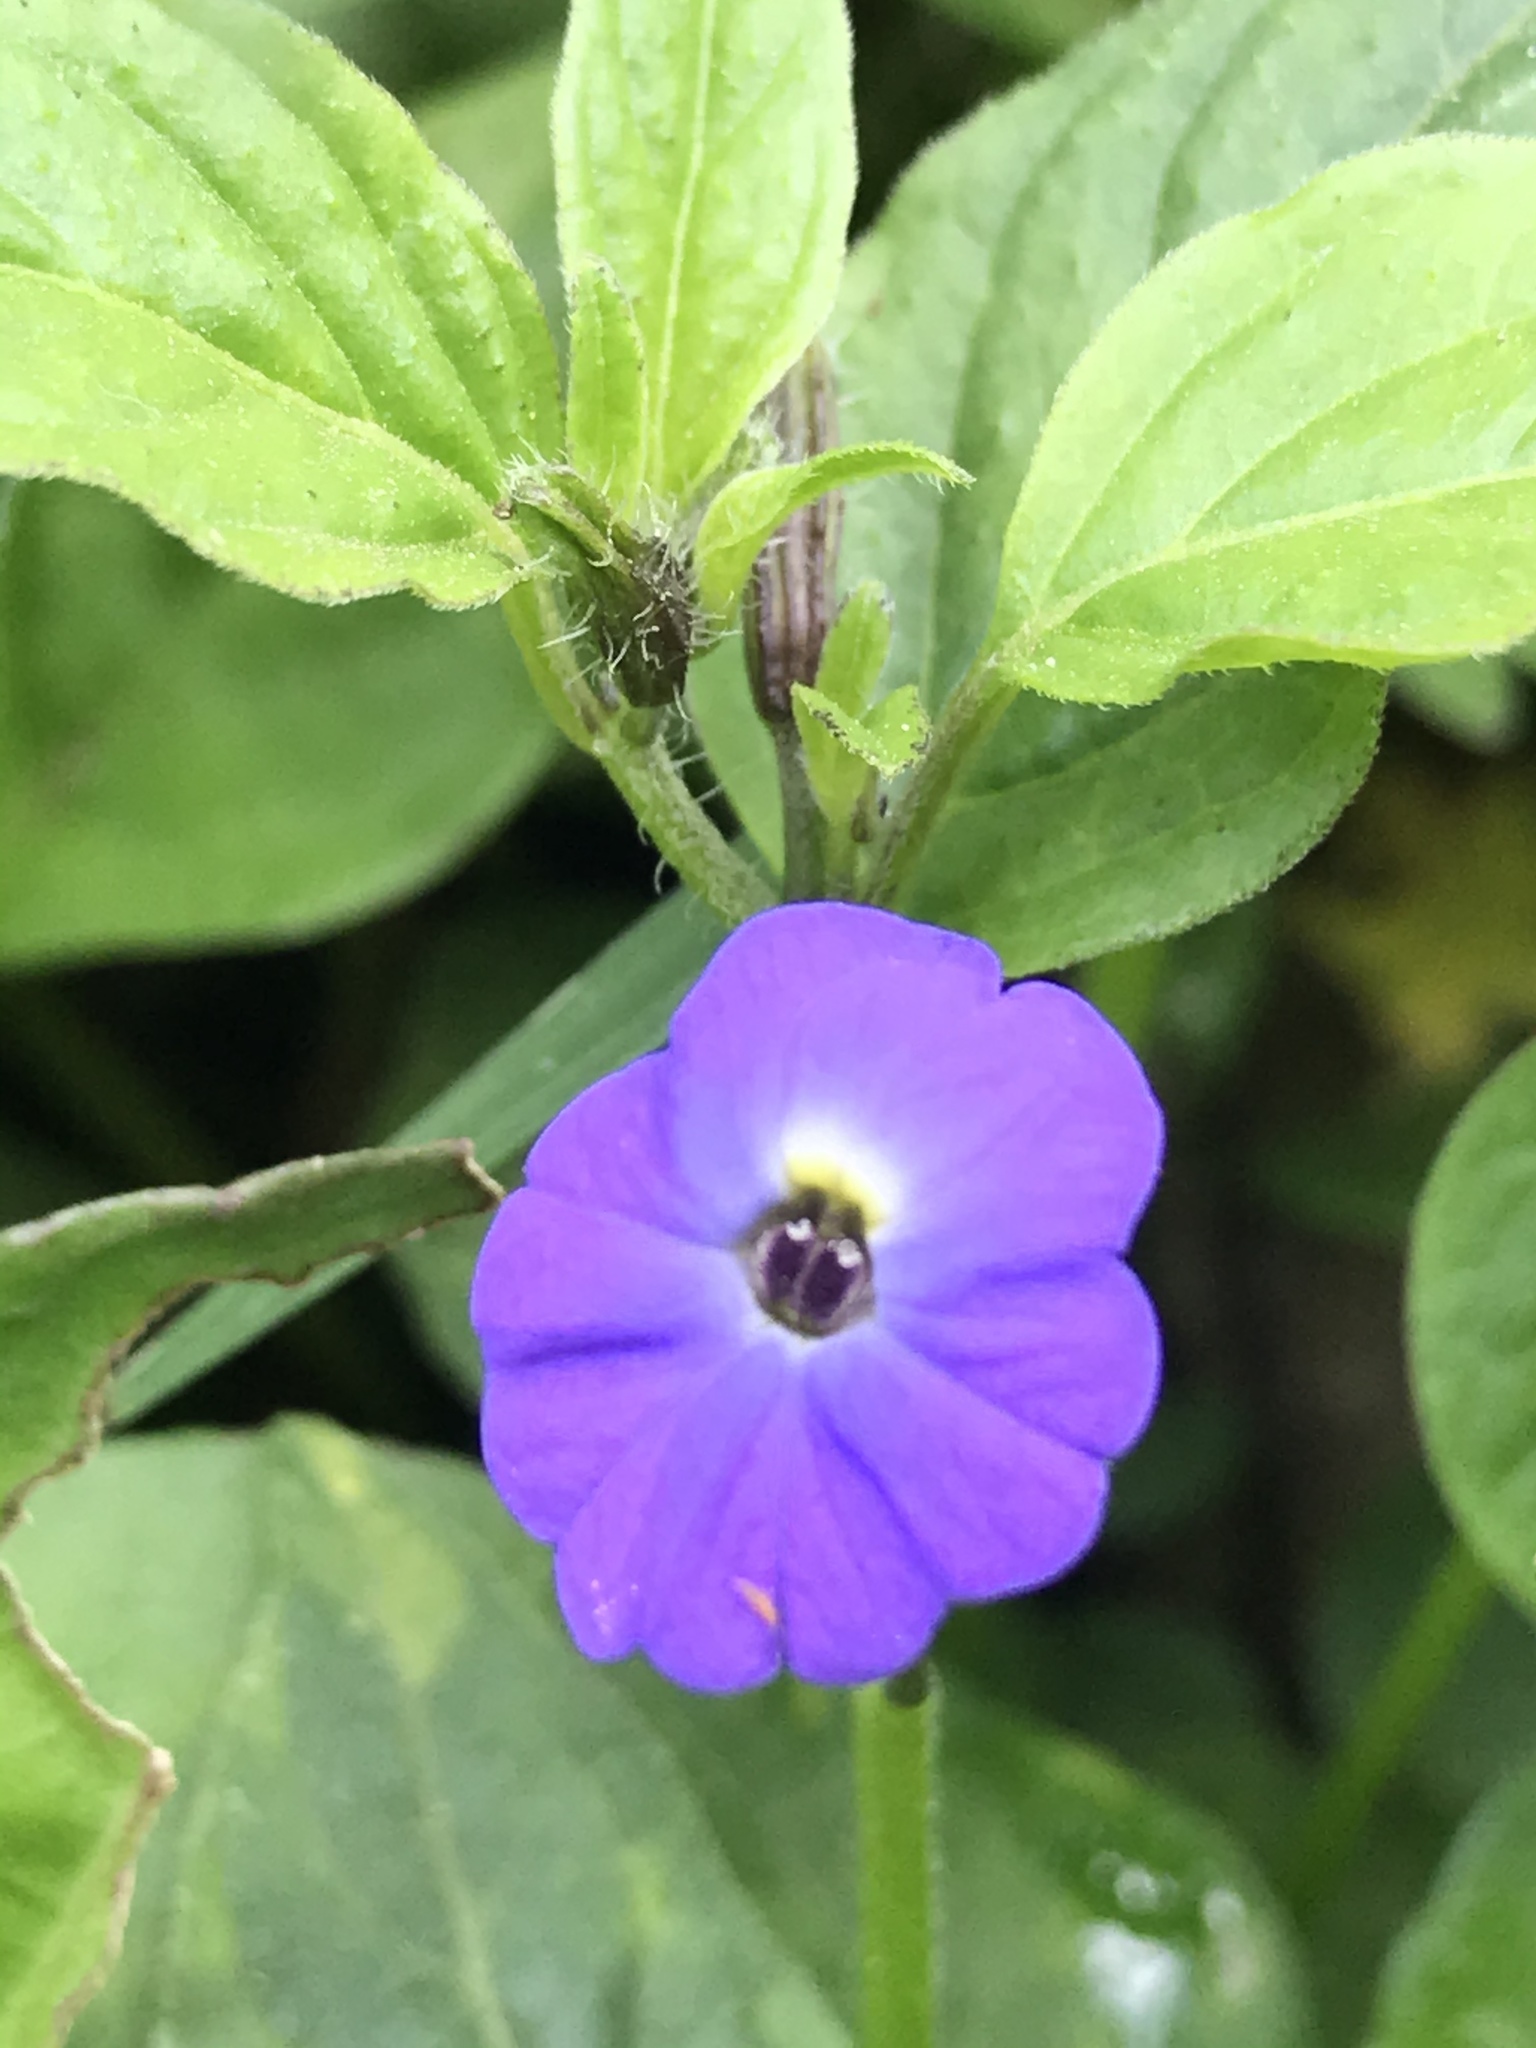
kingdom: Plantae
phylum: Tracheophyta
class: Magnoliopsida
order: Solanales
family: Solanaceae
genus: Browallia
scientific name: Browallia americana
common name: Jamaican forget-me-not
